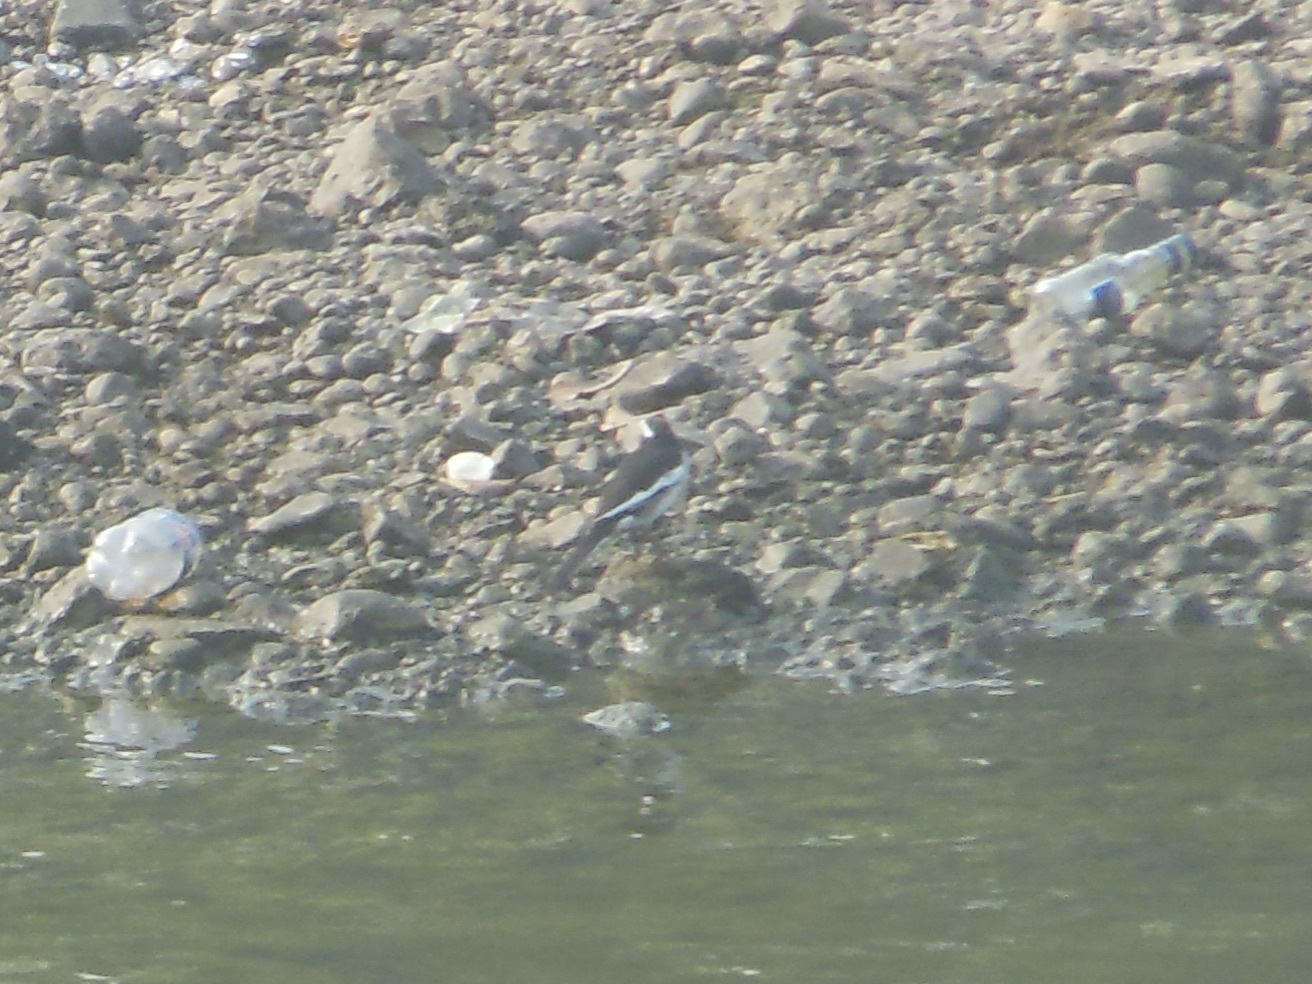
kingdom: Animalia
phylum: Chordata
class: Aves
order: Passeriformes
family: Motacillidae
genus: Motacilla
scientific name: Motacilla maderaspatensis
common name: White-browed wagtail
